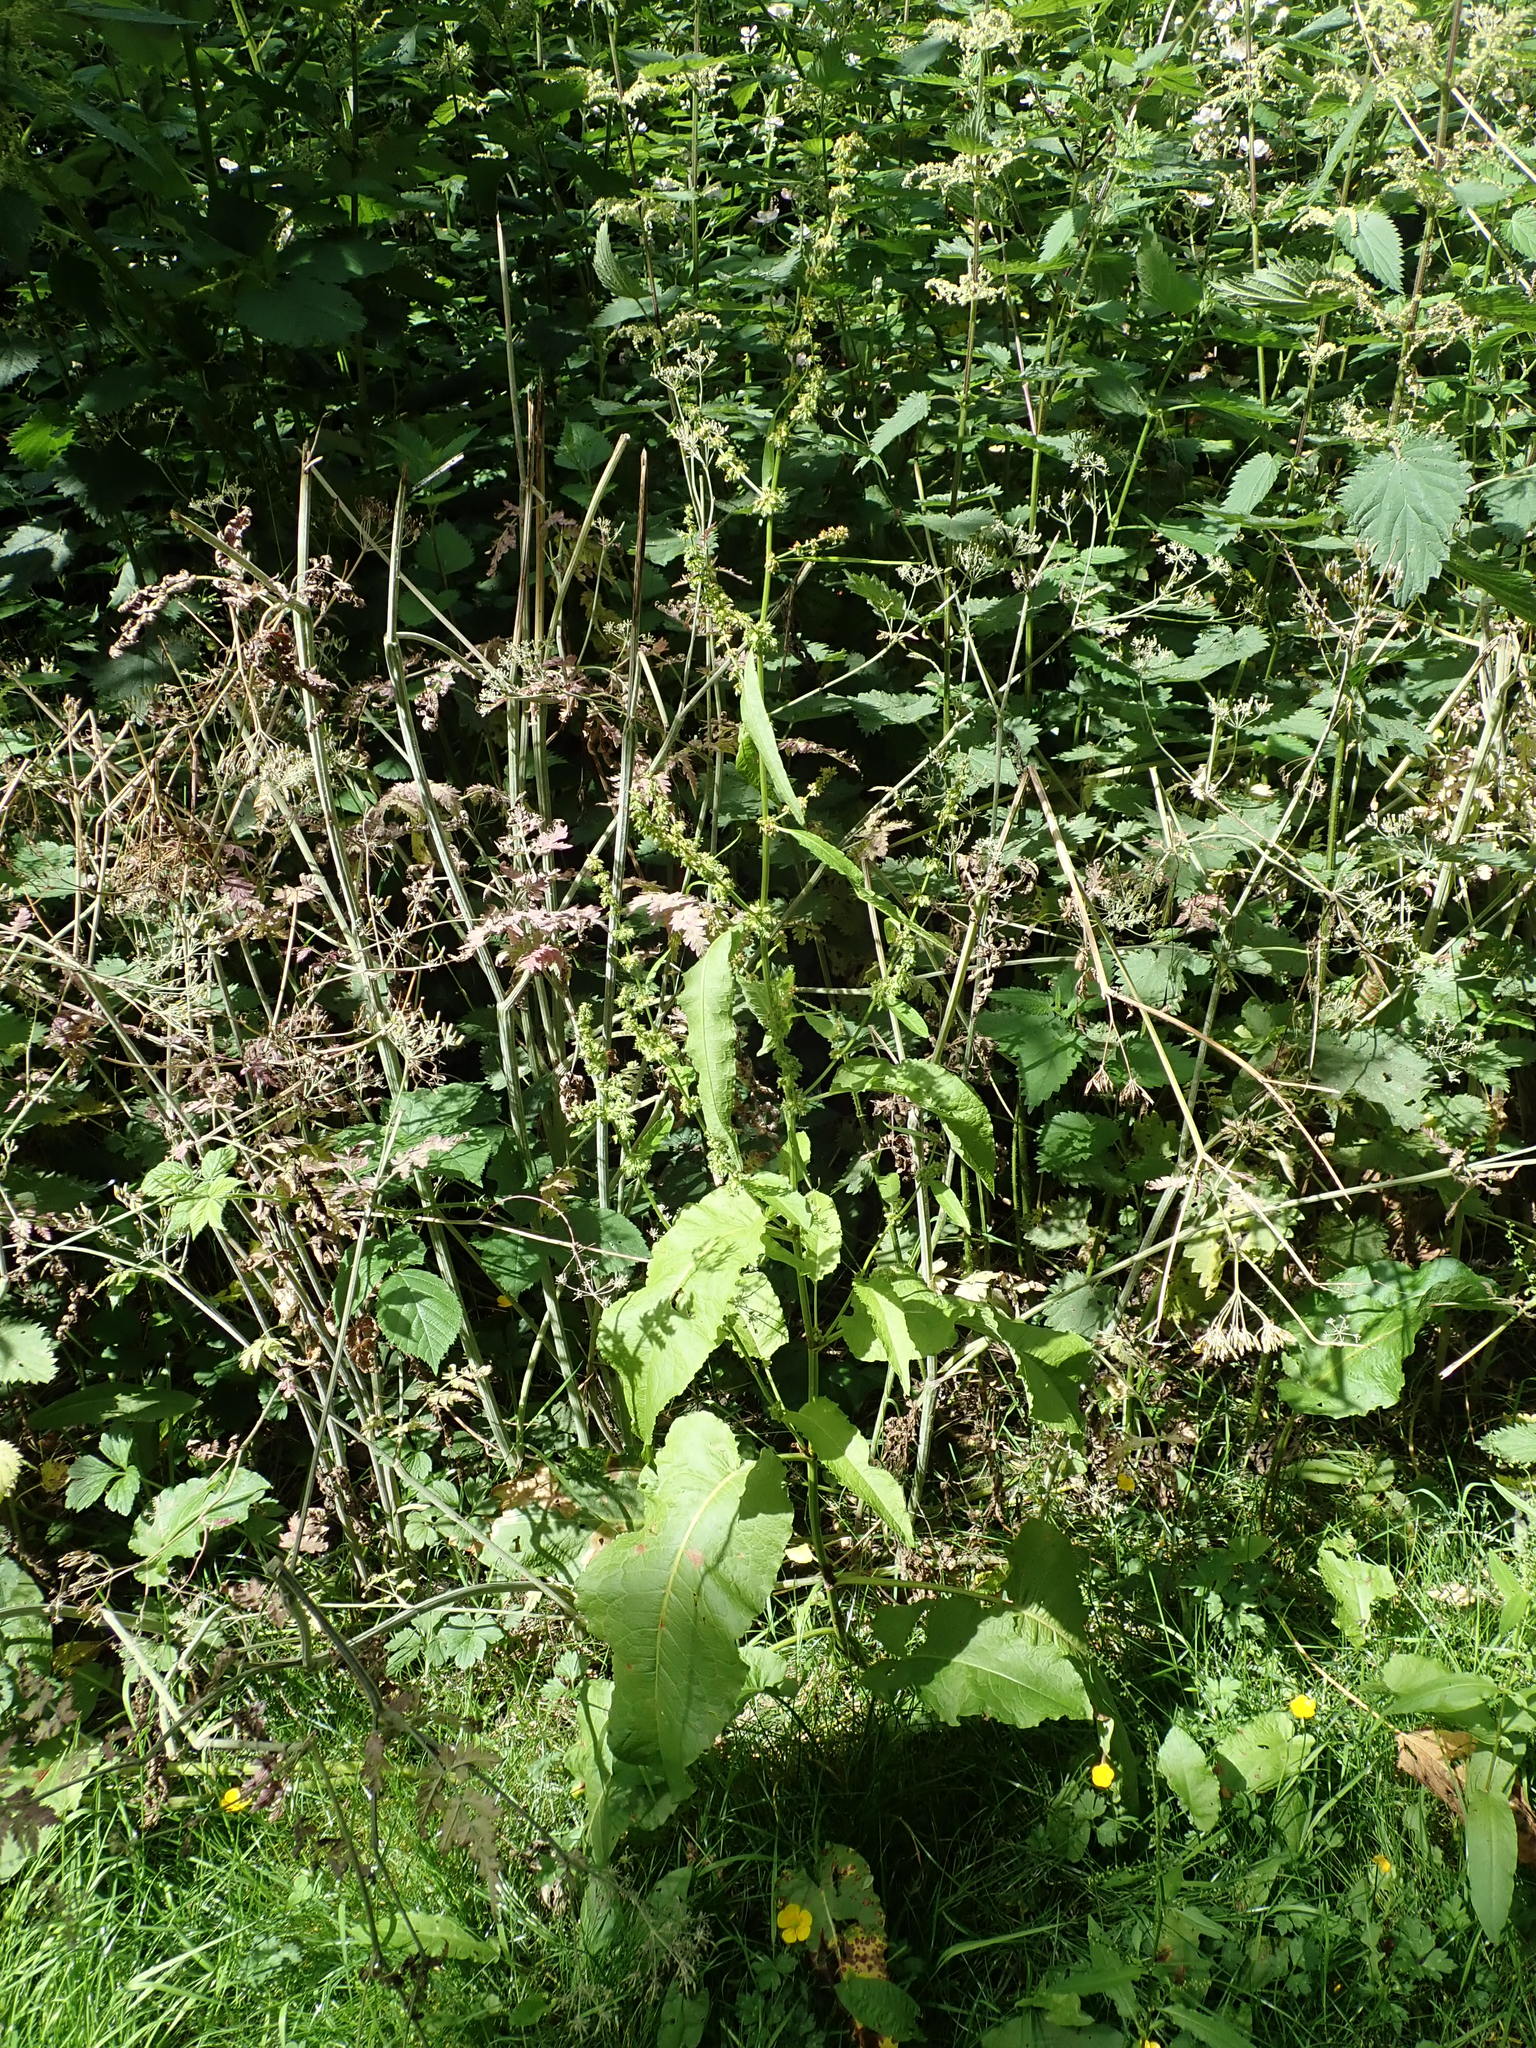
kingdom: Plantae
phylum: Tracheophyta
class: Magnoliopsida
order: Caryophyllales
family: Polygonaceae
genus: Rumex
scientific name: Rumex obtusifolius
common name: Bitter dock
